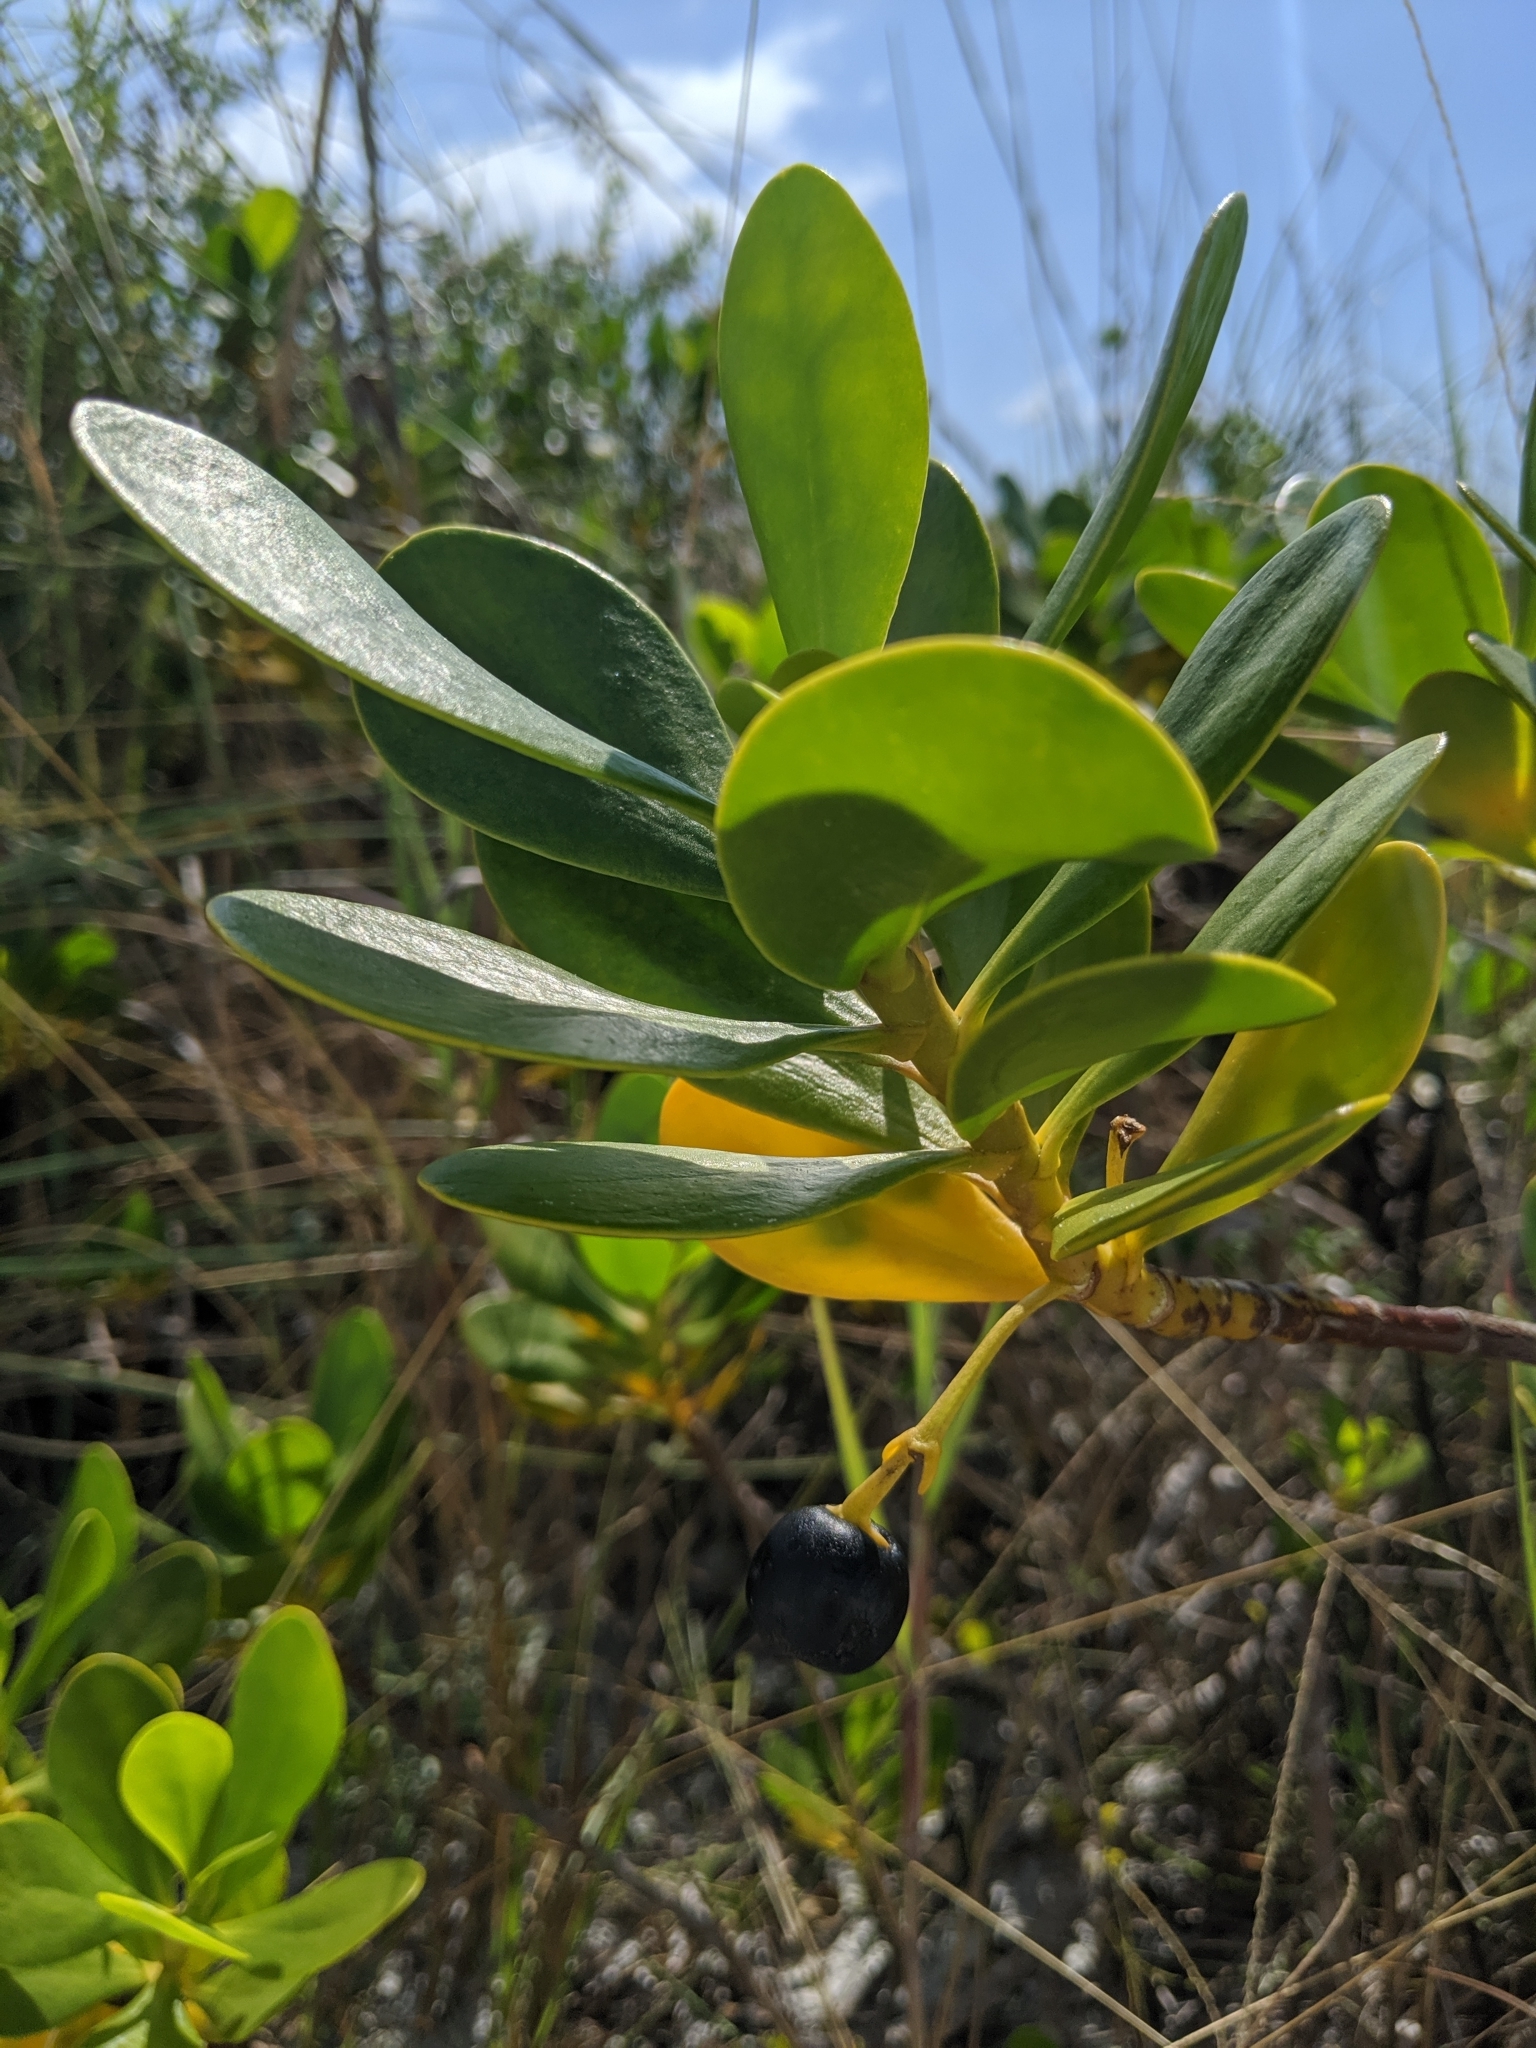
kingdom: Plantae
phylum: Tracheophyta
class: Magnoliopsida
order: Asterales
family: Goodeniaceae
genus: Scaevola
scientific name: Scaevola plumieri
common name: Gull feed
